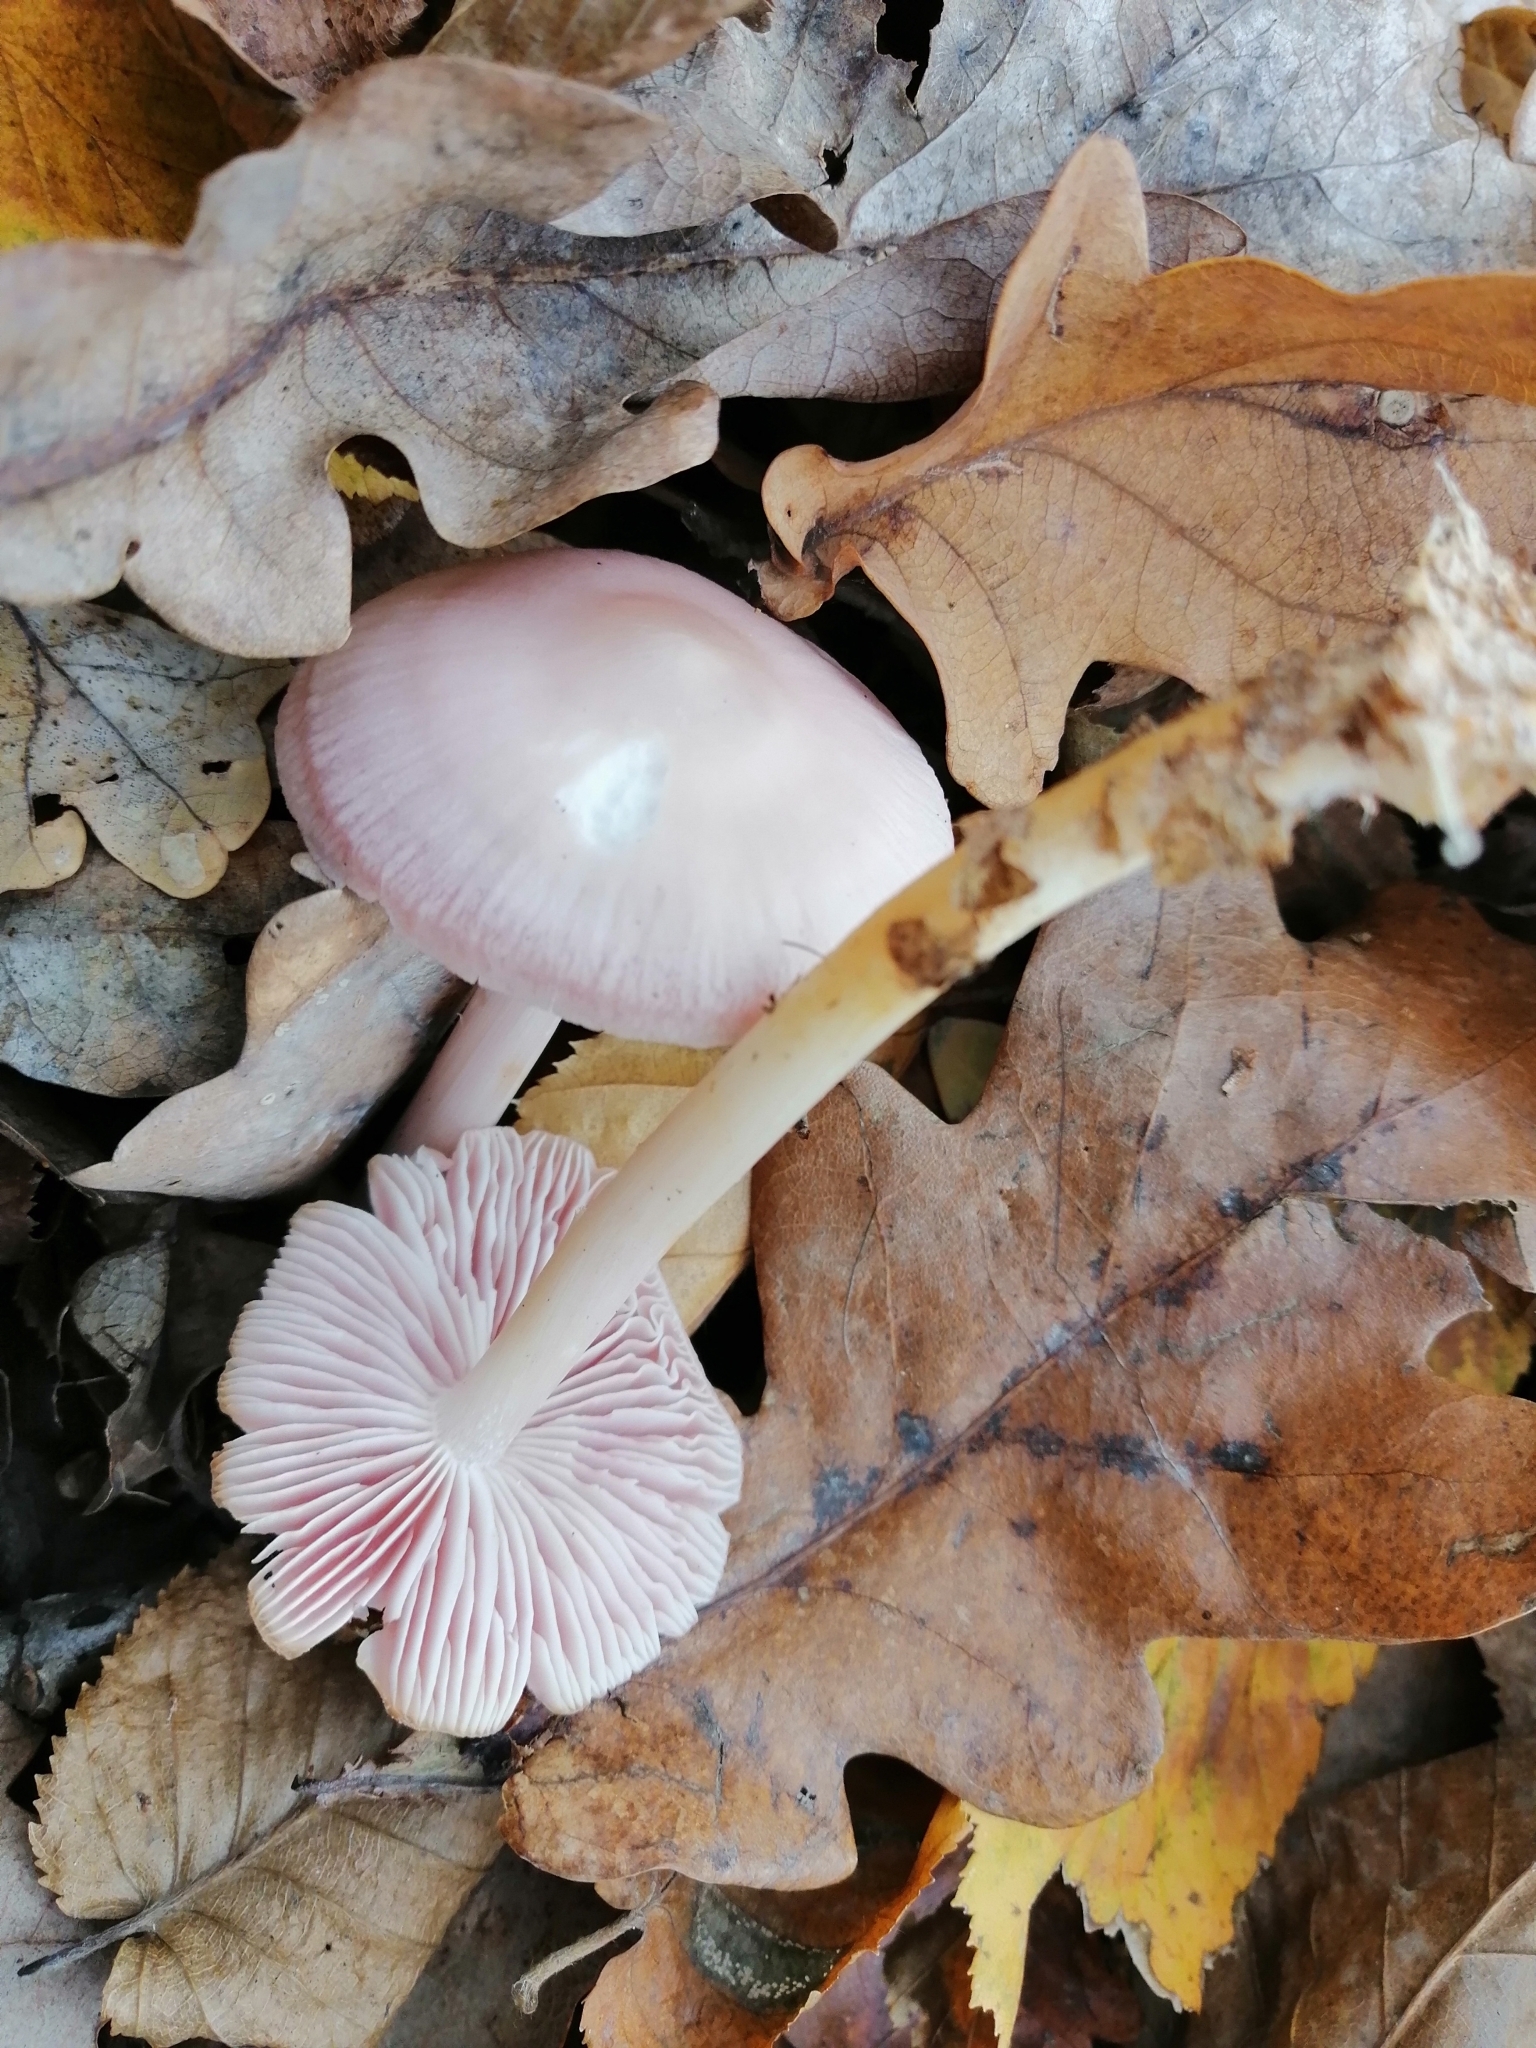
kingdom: Fungi
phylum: Basidiomycota
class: Agaricomycetes
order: Agaricales
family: Mycenaceae
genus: Mycena
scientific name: Mycena rosea
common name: Rosy bonnet
